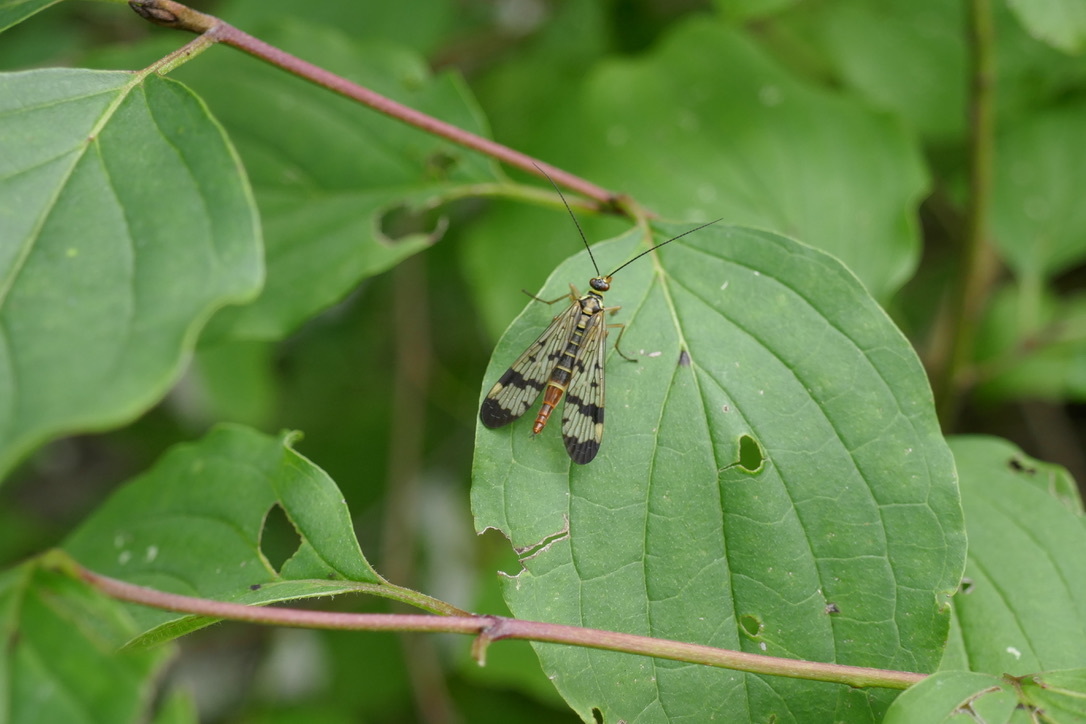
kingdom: Animalia
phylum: Arthropoda
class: Insecta
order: Mecoptera
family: Panorpidae
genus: Panorpa
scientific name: Panorpa communis
